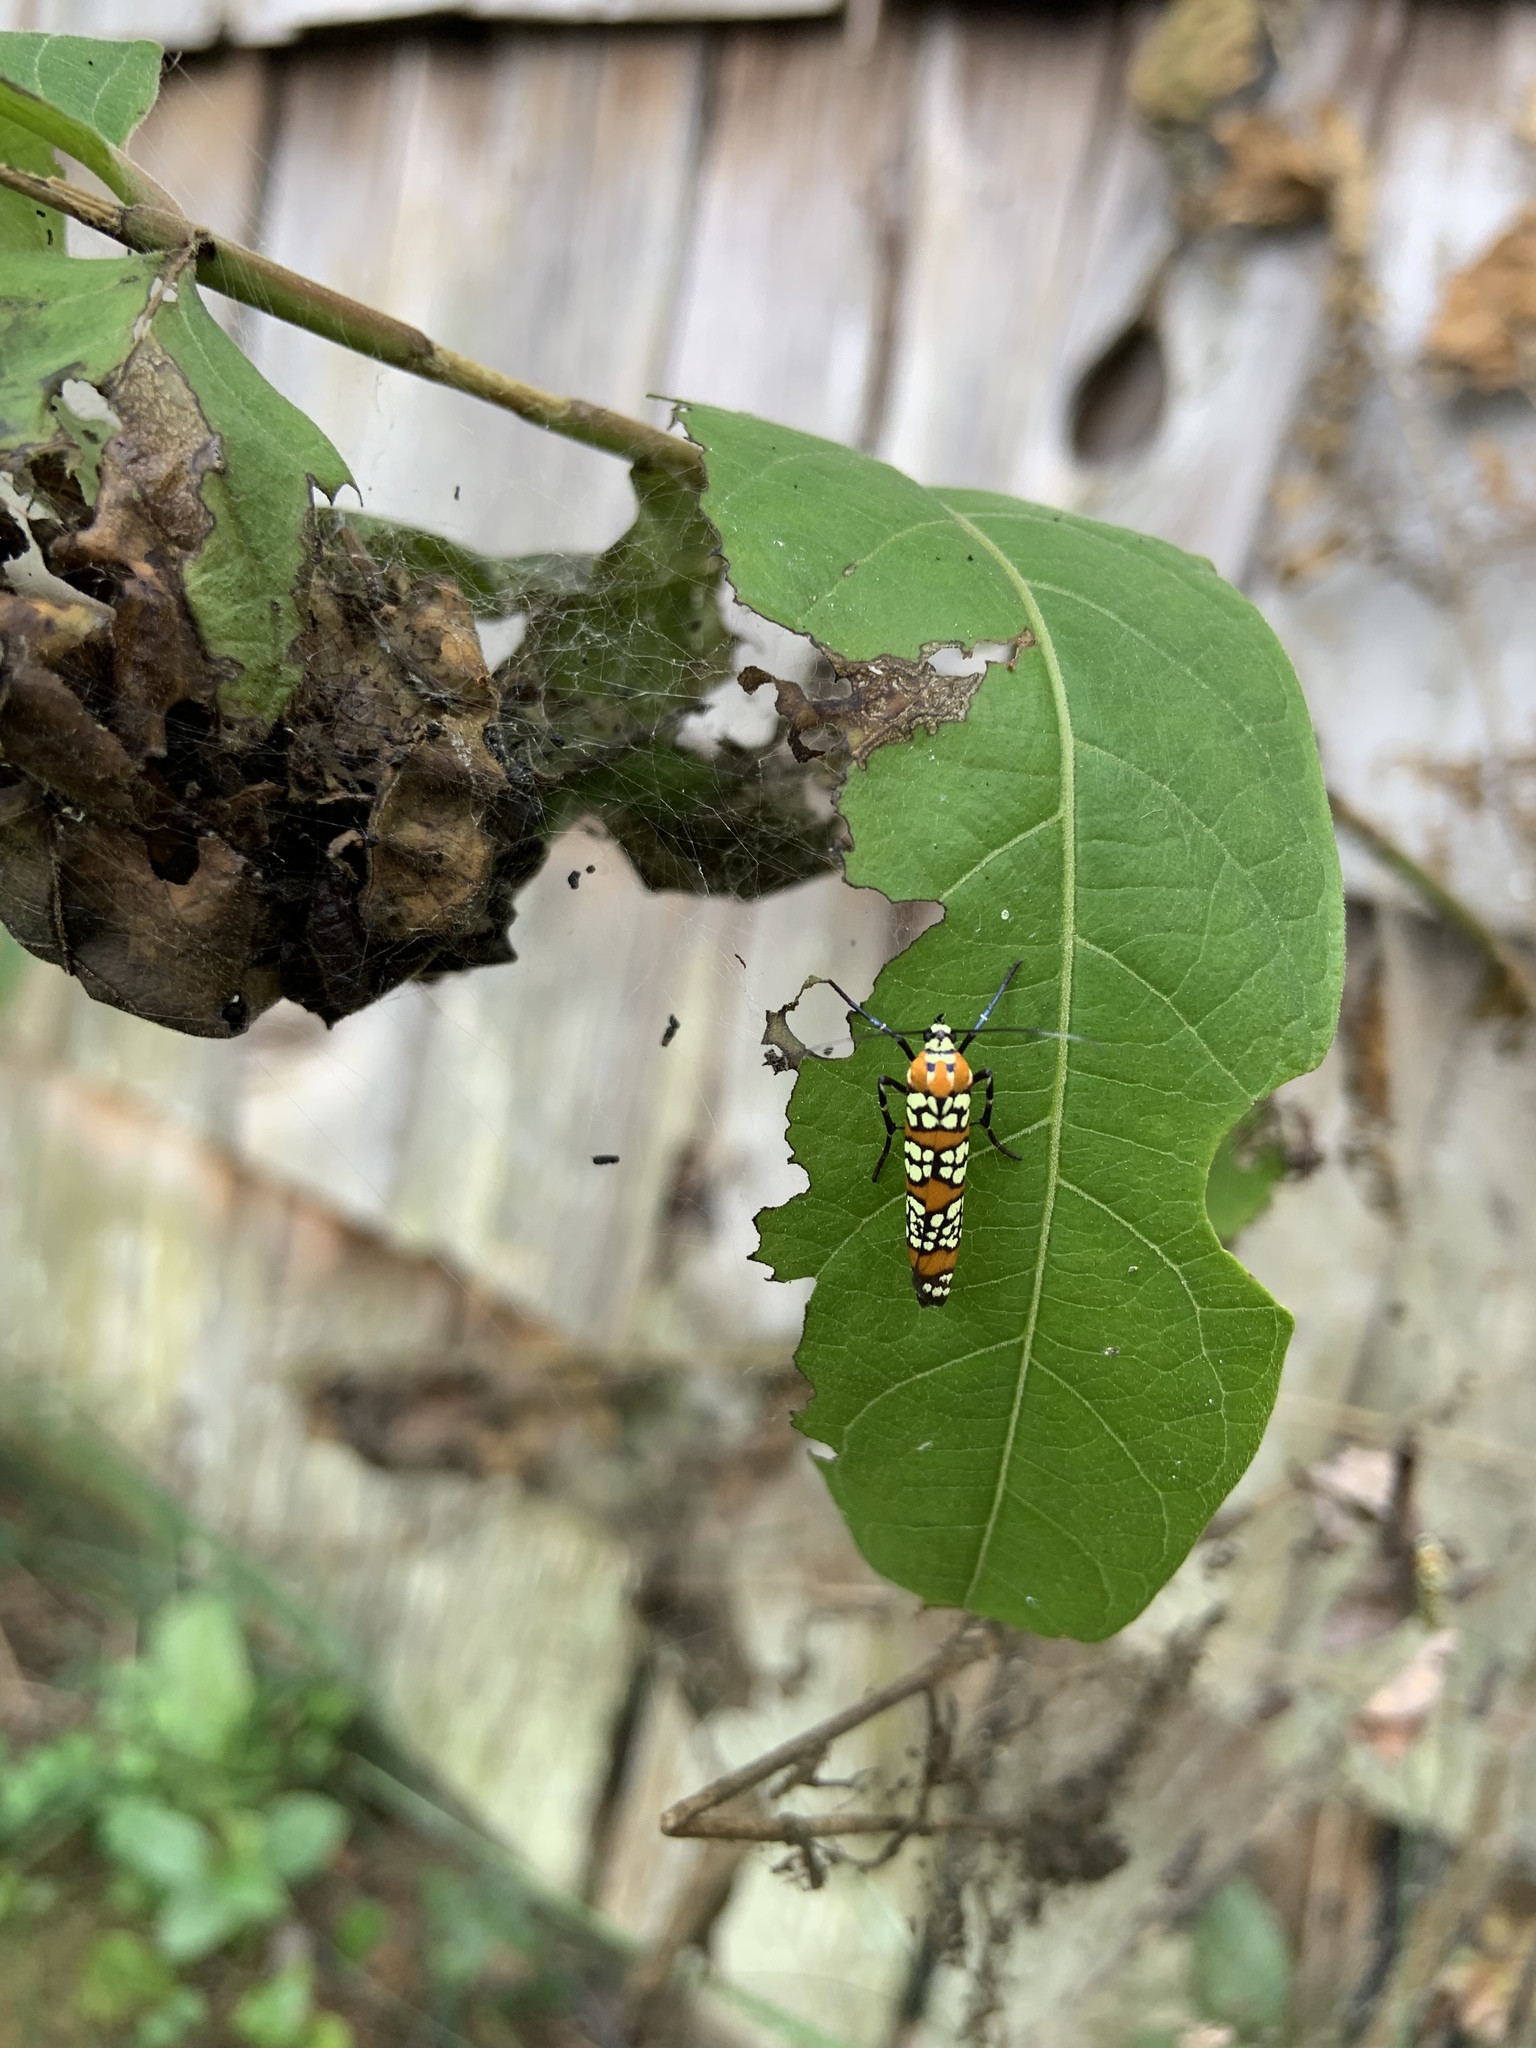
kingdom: Animalia
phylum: Arthropoda
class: Insecta
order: Lepidoptera
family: Attevidae
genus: Atteva
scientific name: Atteva punctella
